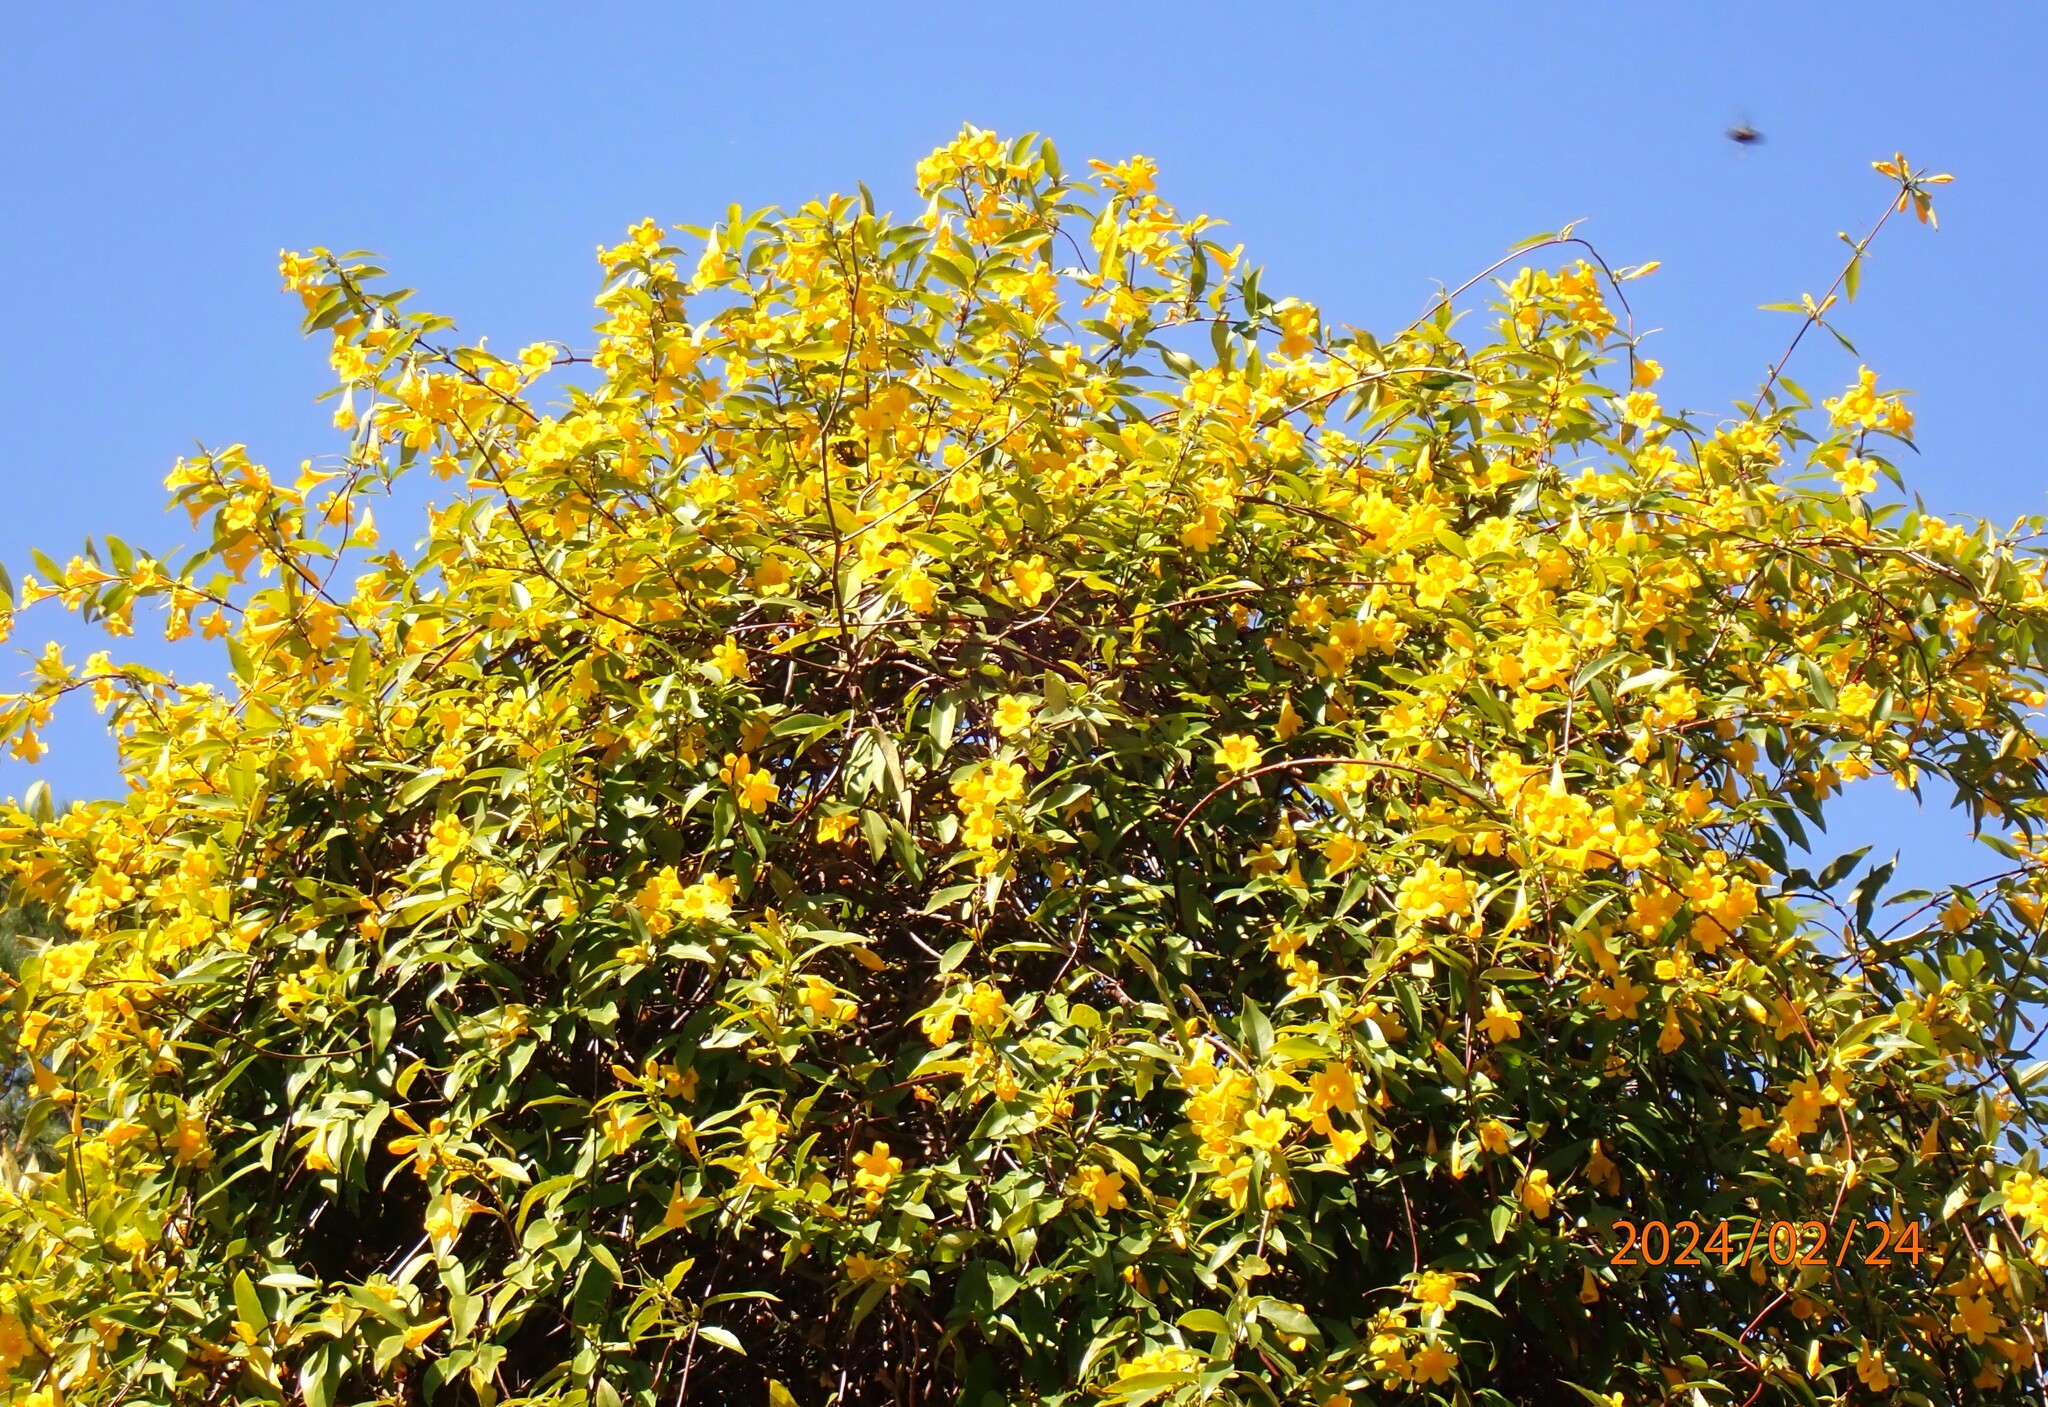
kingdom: Plantae
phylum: Tracheophyta
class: Magnoliopsida
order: Gentianales
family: Gelsemiaceae
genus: Gelsemium
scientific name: Gelsemium sempervirens
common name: Carolina-jasmine
